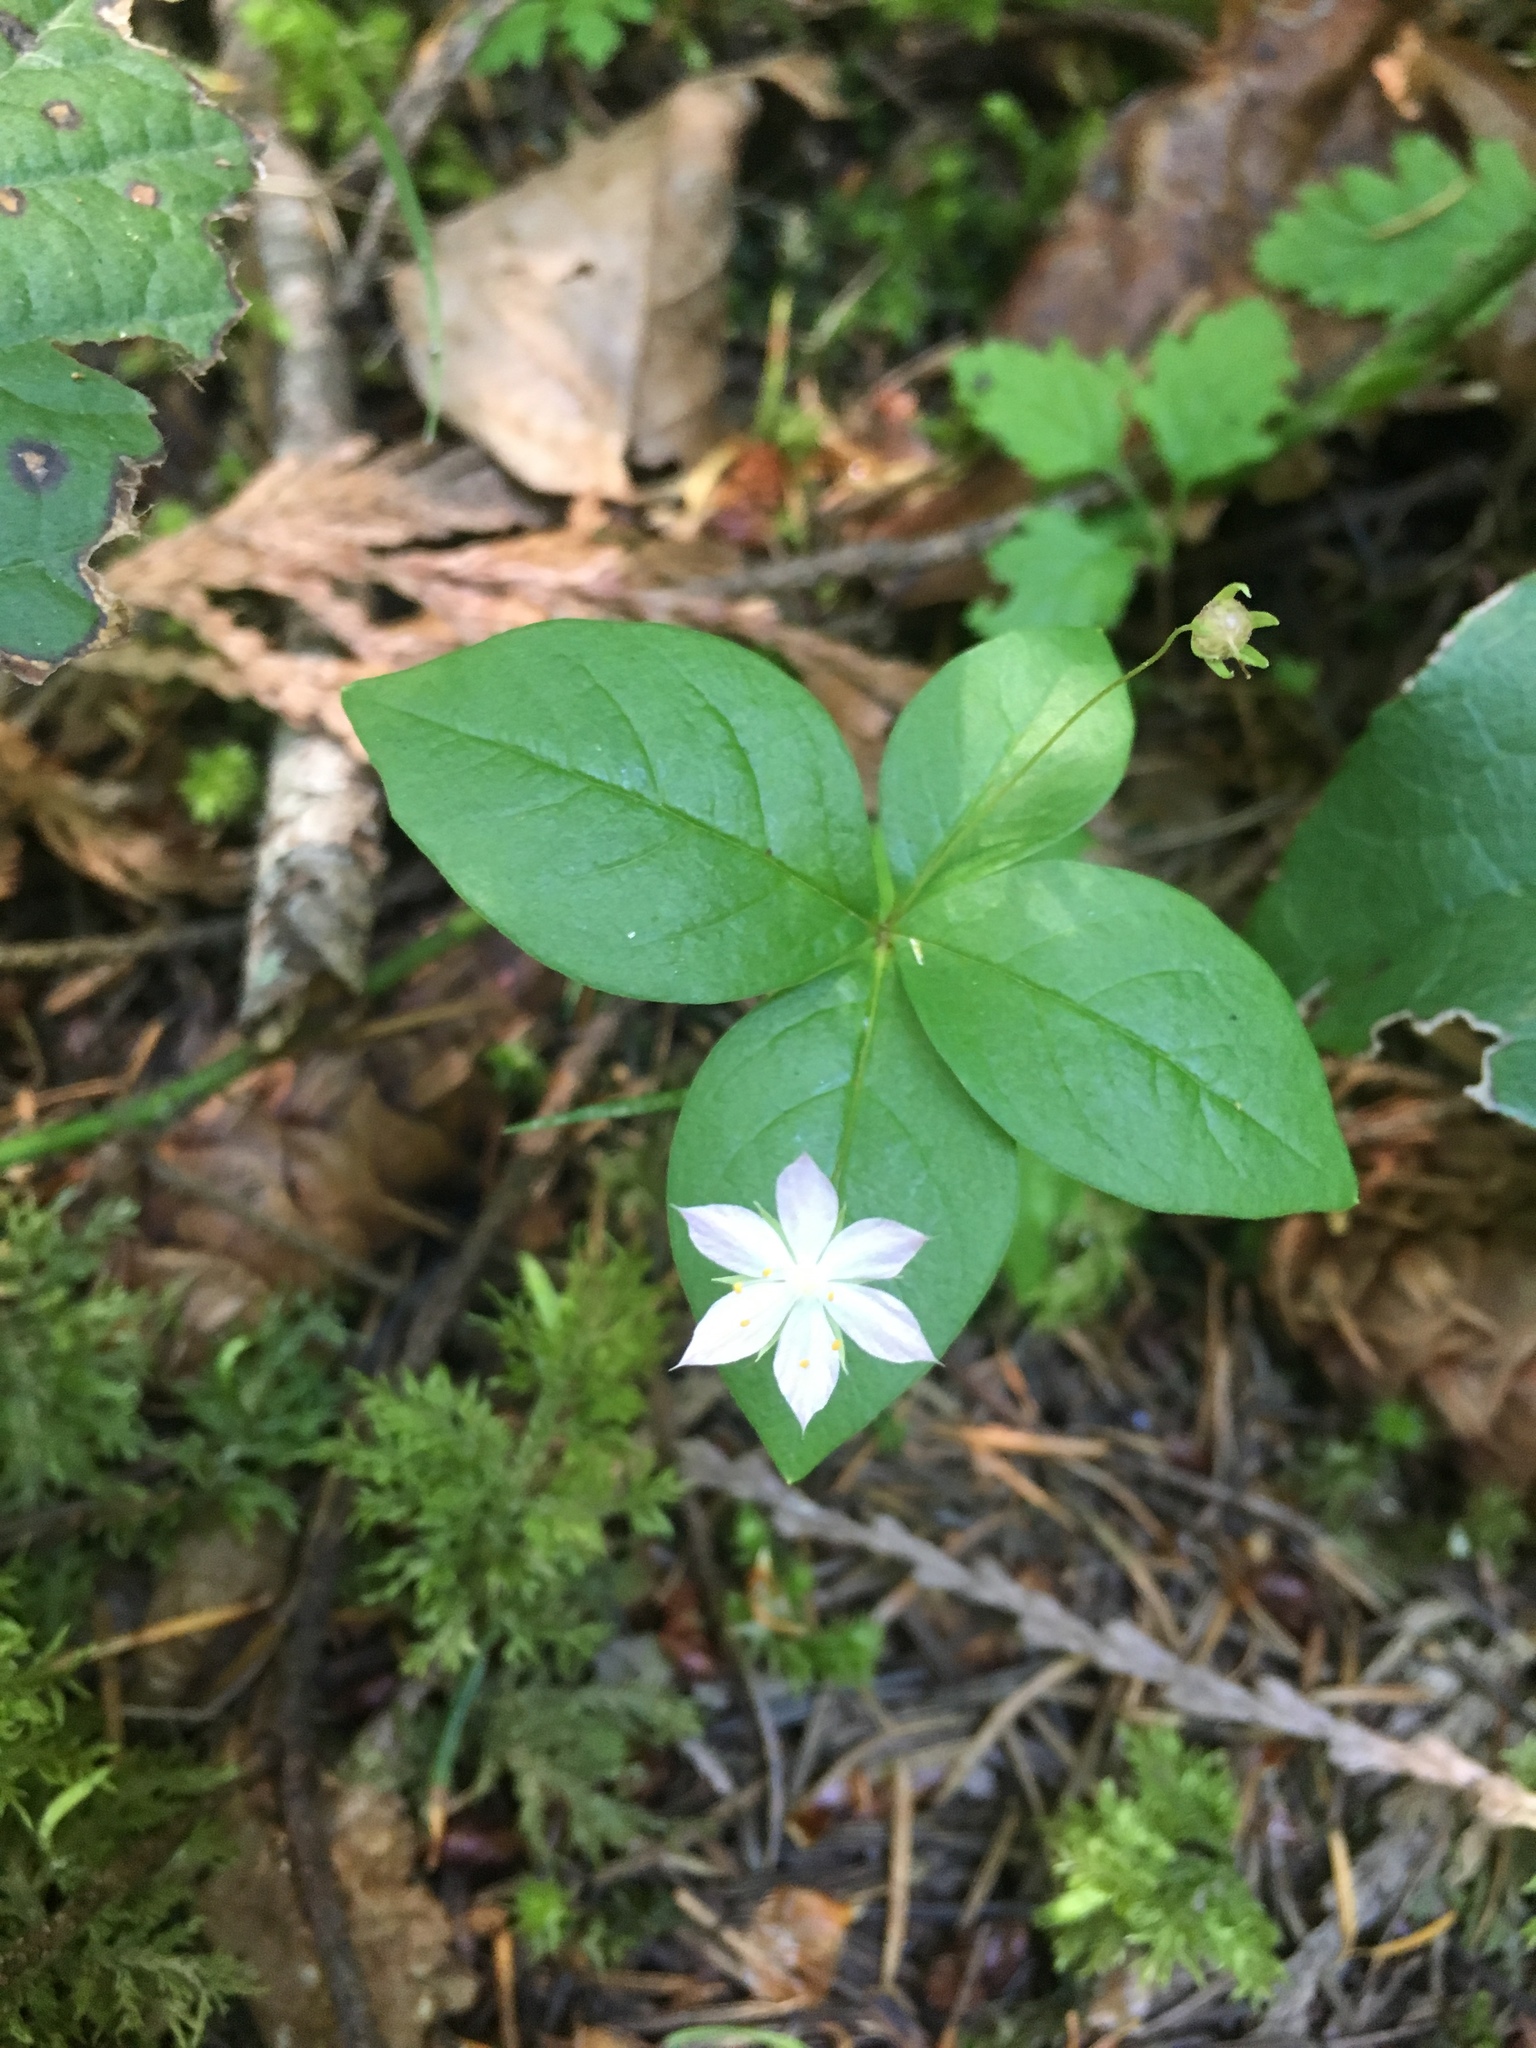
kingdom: Plantae
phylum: Tracheophyta
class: Magnoliopsida
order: Ericales
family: Primulaceae
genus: Lysimachia
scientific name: Lysimachia latifolia
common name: Pacific starflower
